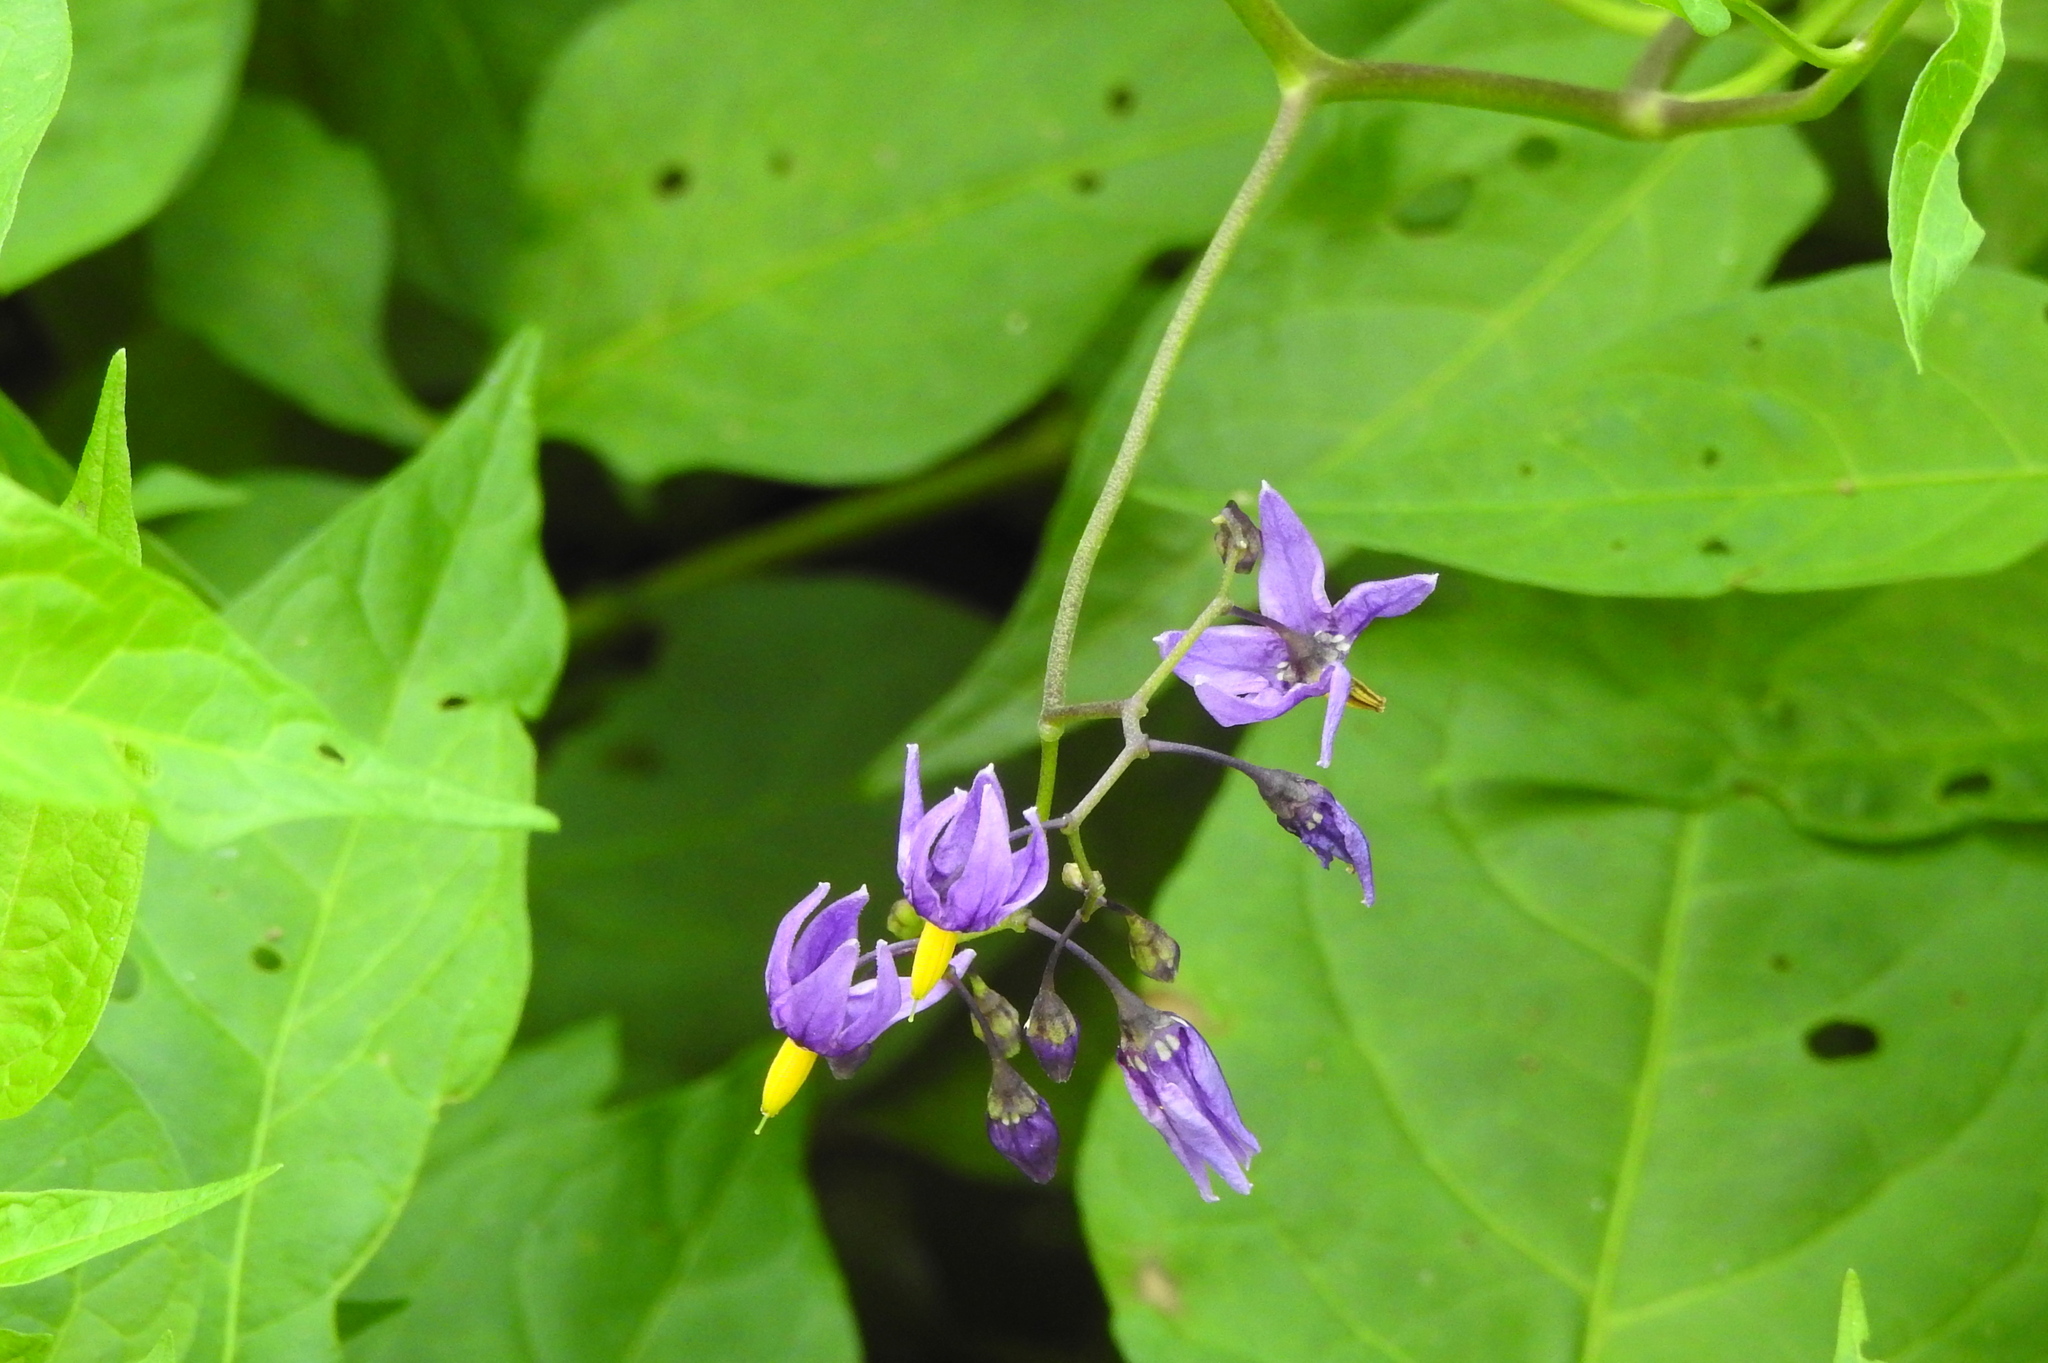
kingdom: Plantae
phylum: Tracheophyta
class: Magnoliopsida
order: Solanales
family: Solanaceae
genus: Solanum
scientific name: Solanum dulcamara
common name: Climbing nightshade
